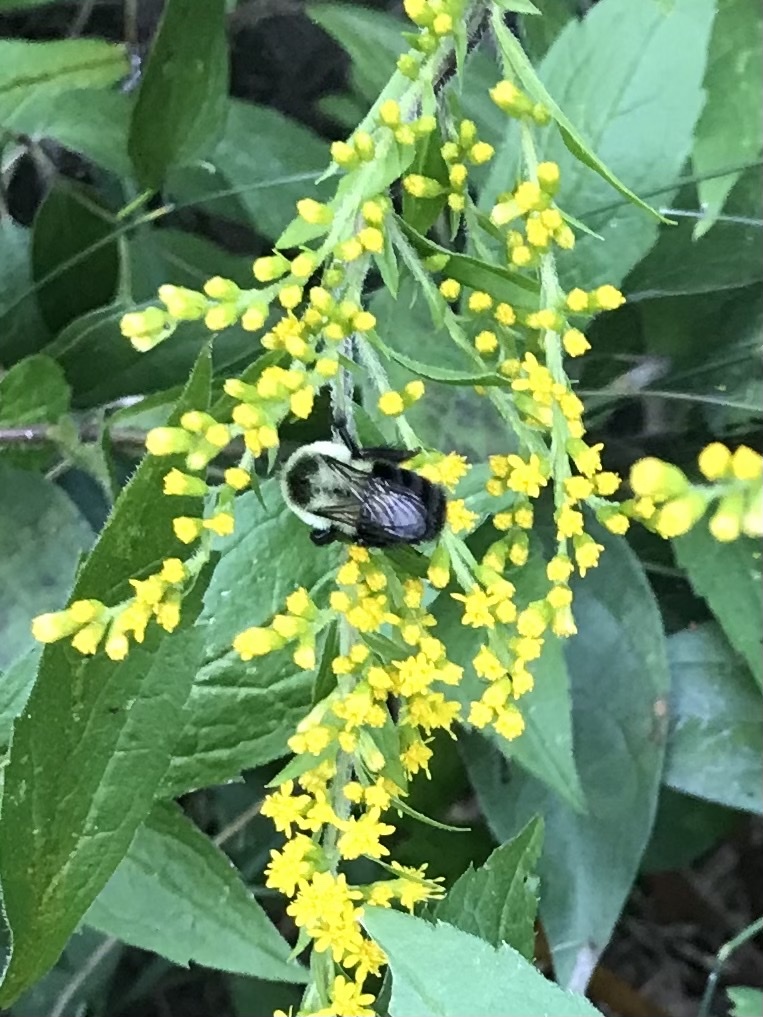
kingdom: Animalia
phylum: Arthropoda
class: Insecta
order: Hymenoptera
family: Apidae
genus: Bombus
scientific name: Bombus impatiens
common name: Common eastern bumble bee
